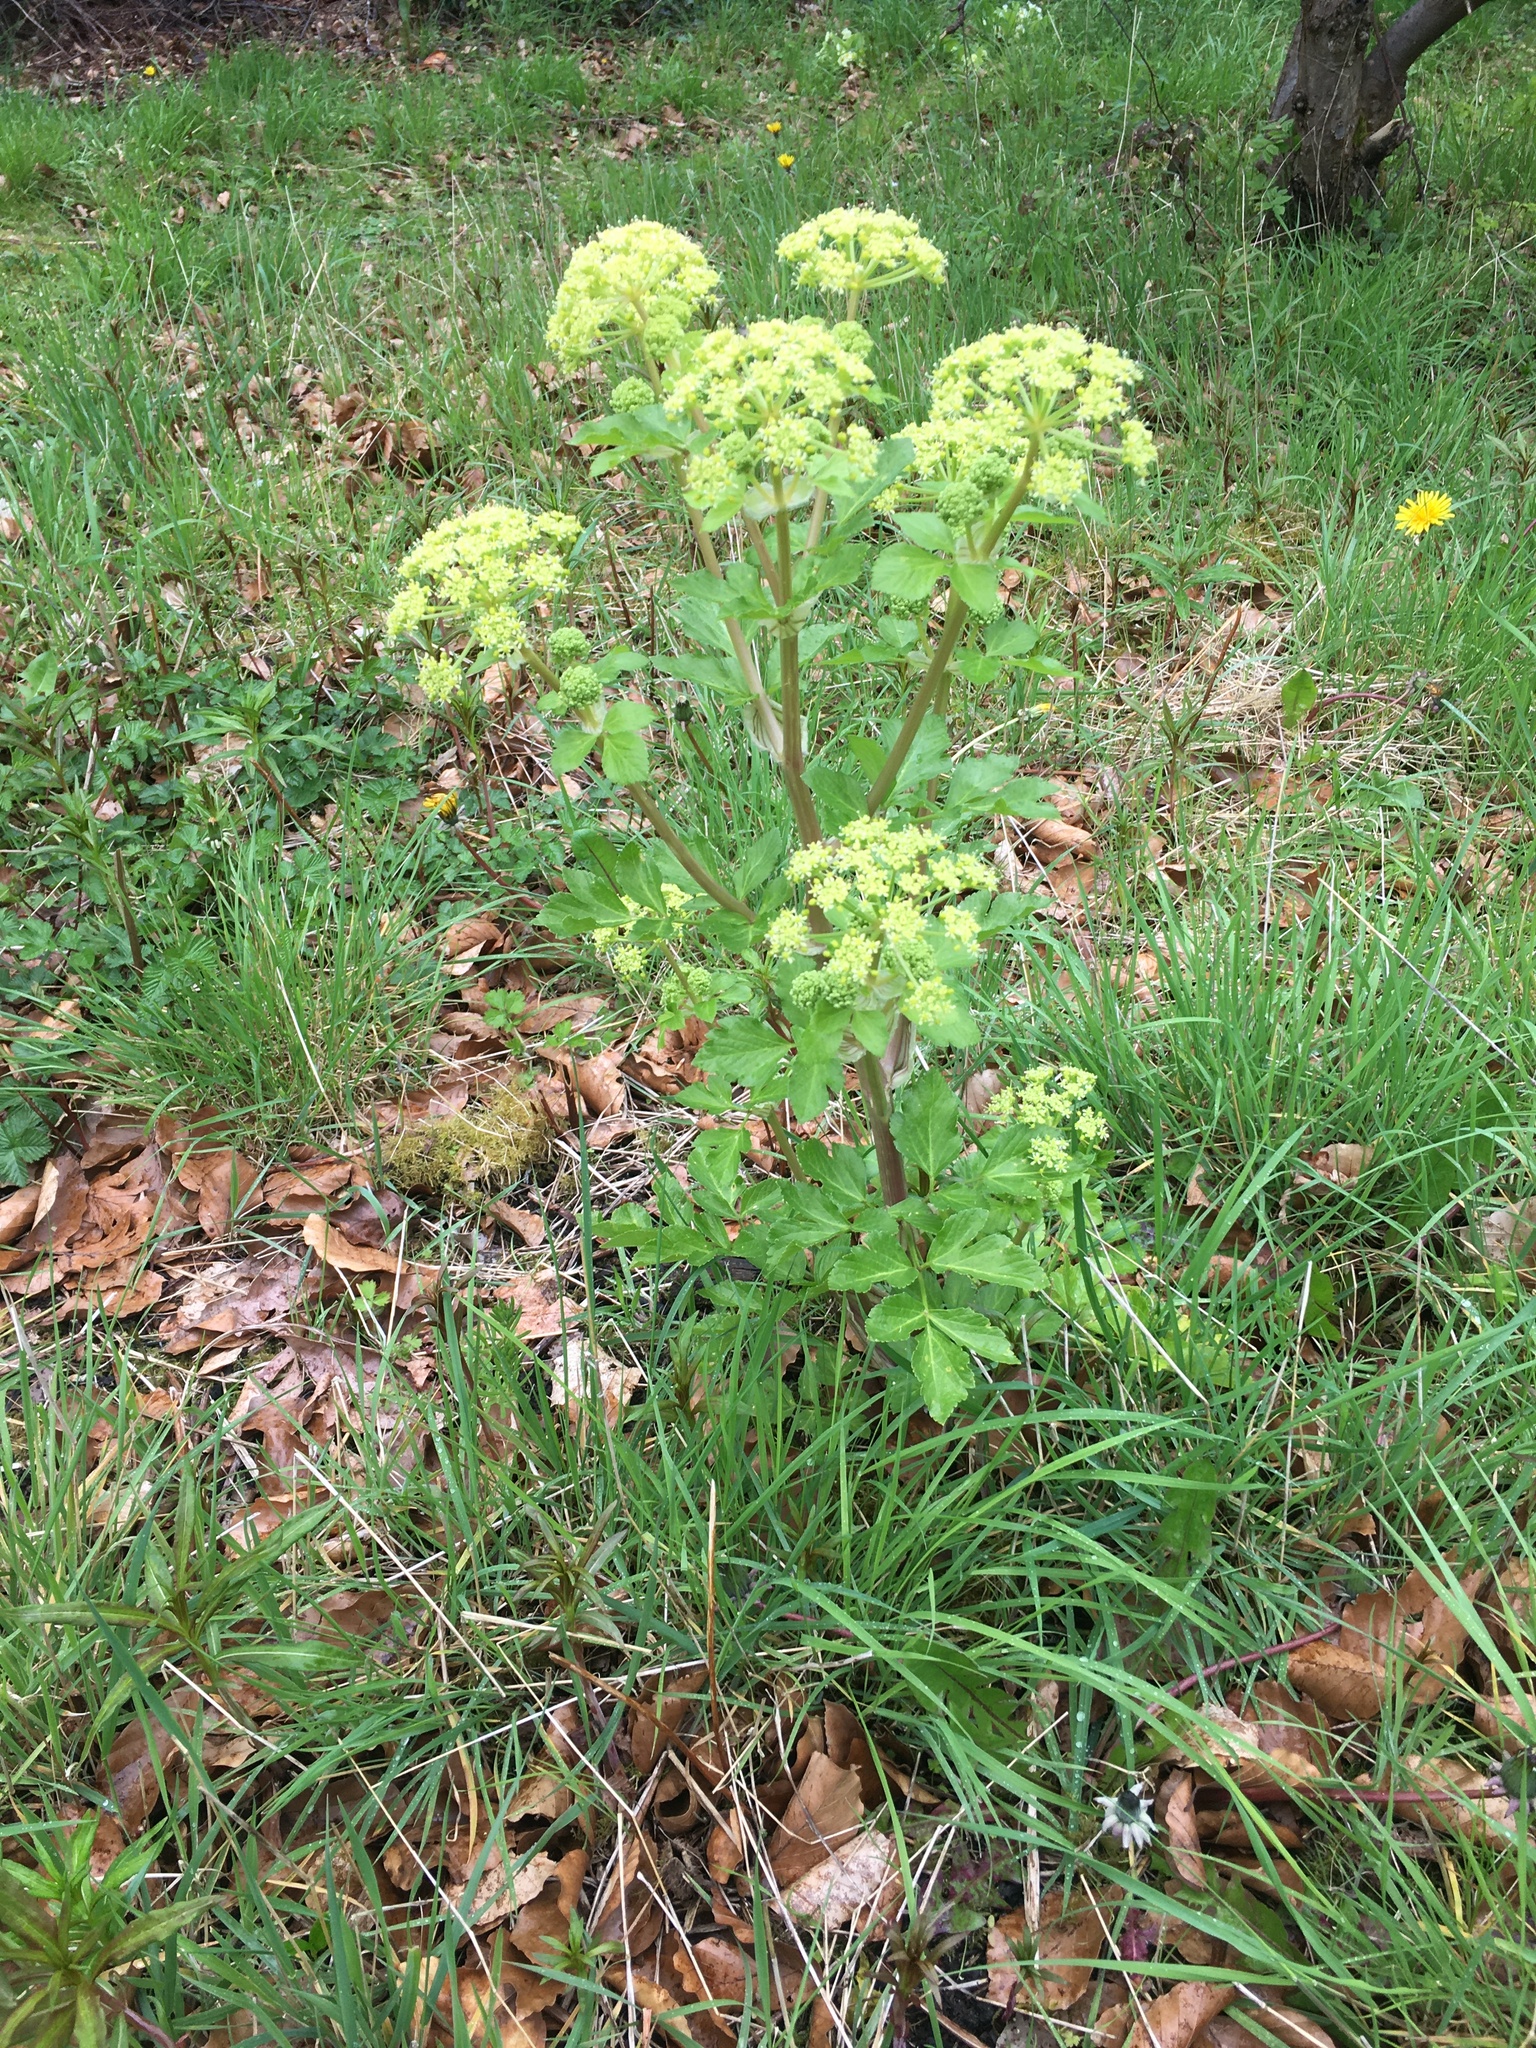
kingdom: Plantae
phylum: Tracheophyta
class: Magnoliopsida
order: Apiales
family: Apiaceae
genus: Smyrnium
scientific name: Smyrnium olusatrum
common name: Alexanders
